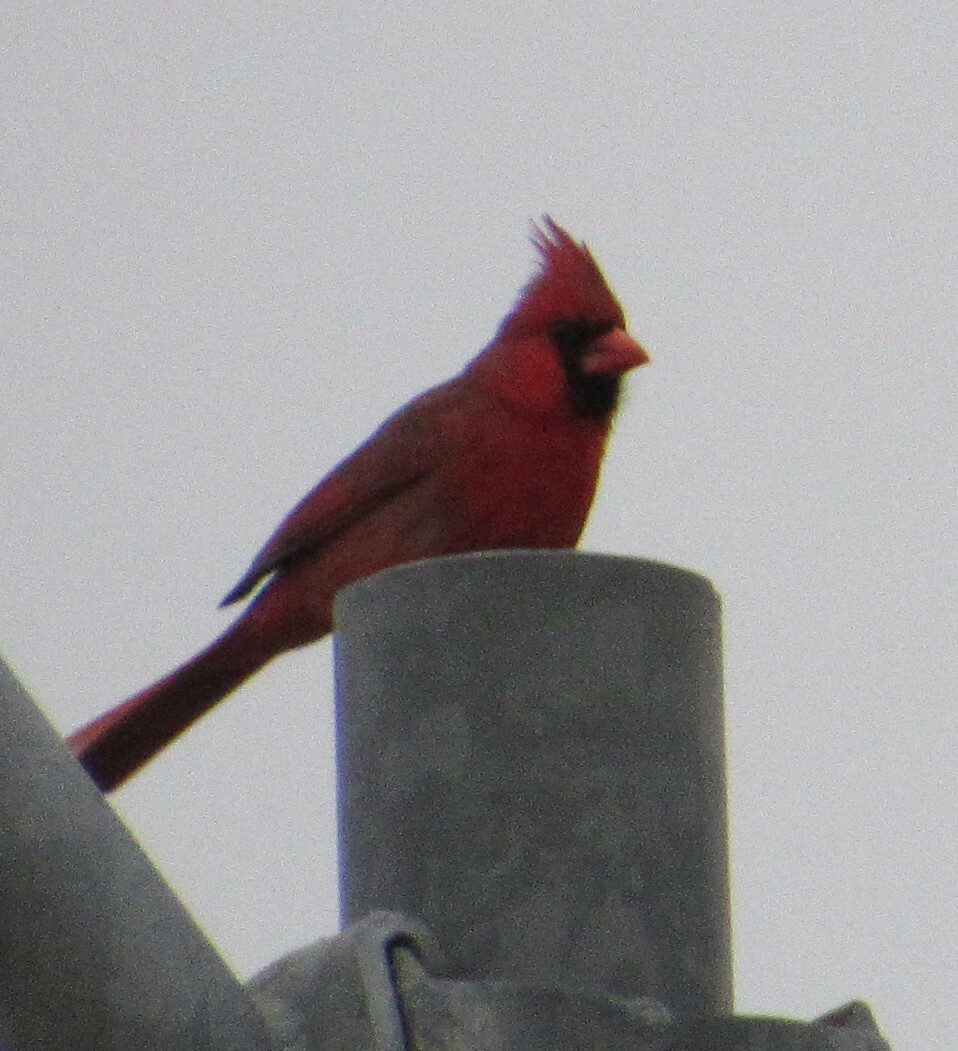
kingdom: Animalia
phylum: Chordata
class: Aves
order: Passeriformes
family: Cardinalidae
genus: Cardinalis
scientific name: Cardinalis cardinalis
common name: Northern cardinal
